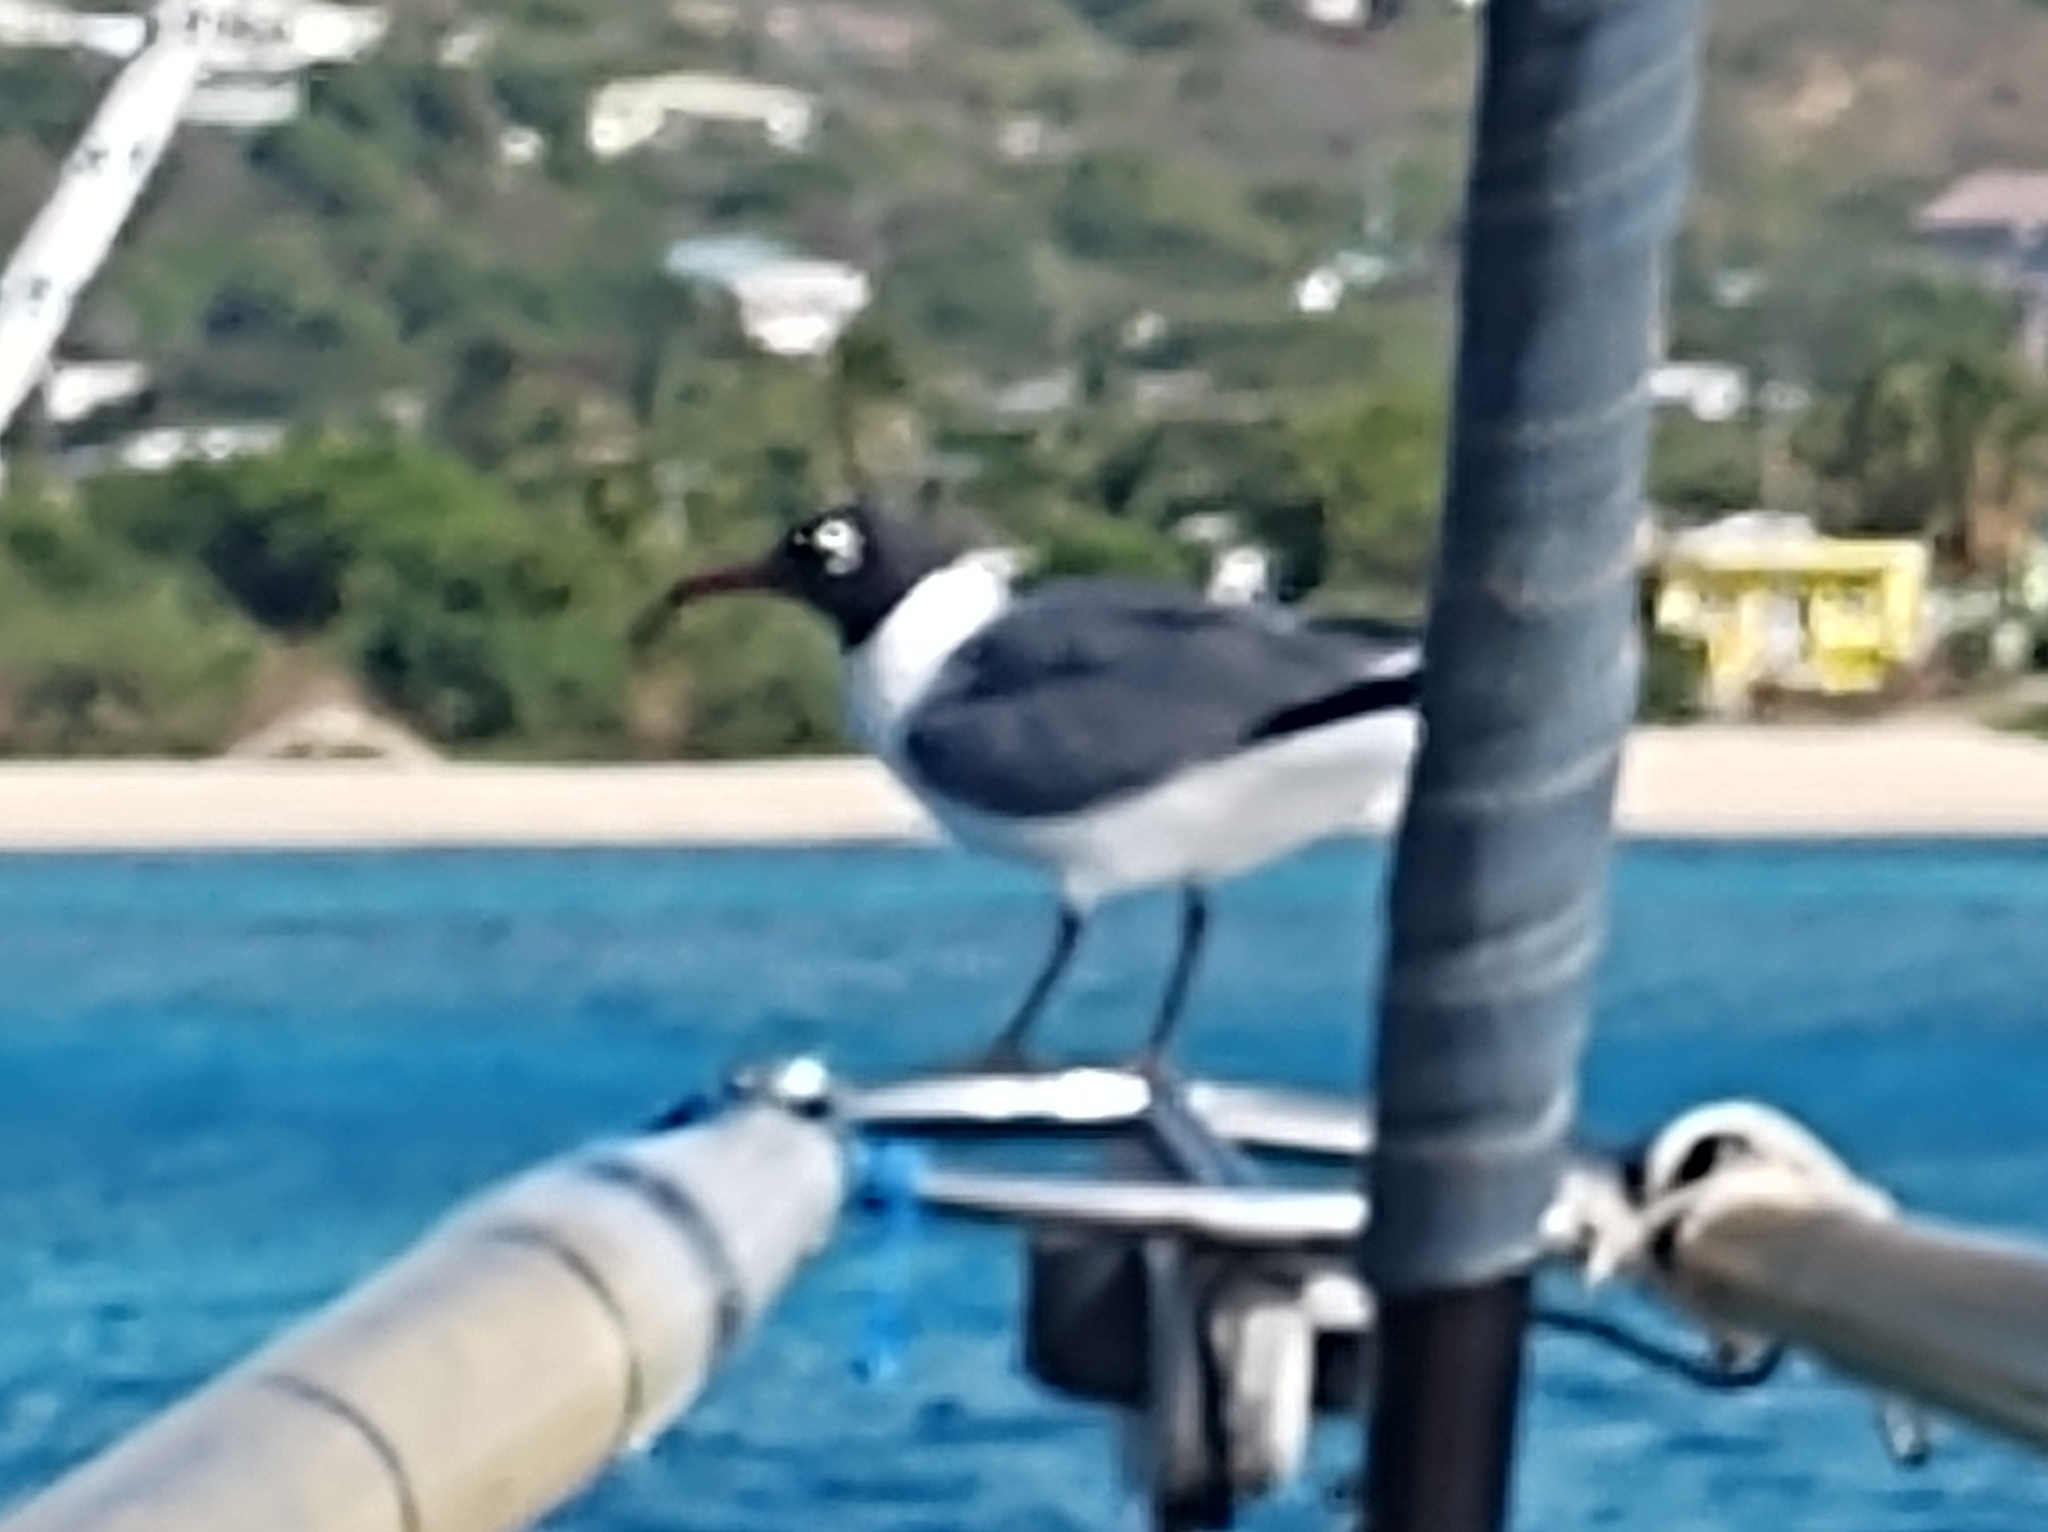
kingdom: Animalia
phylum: Chordata
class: Aves
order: Charadriiformes
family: Laridae
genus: Leucophaeus
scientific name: Leucophaeus atricilla
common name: Laughing gull
